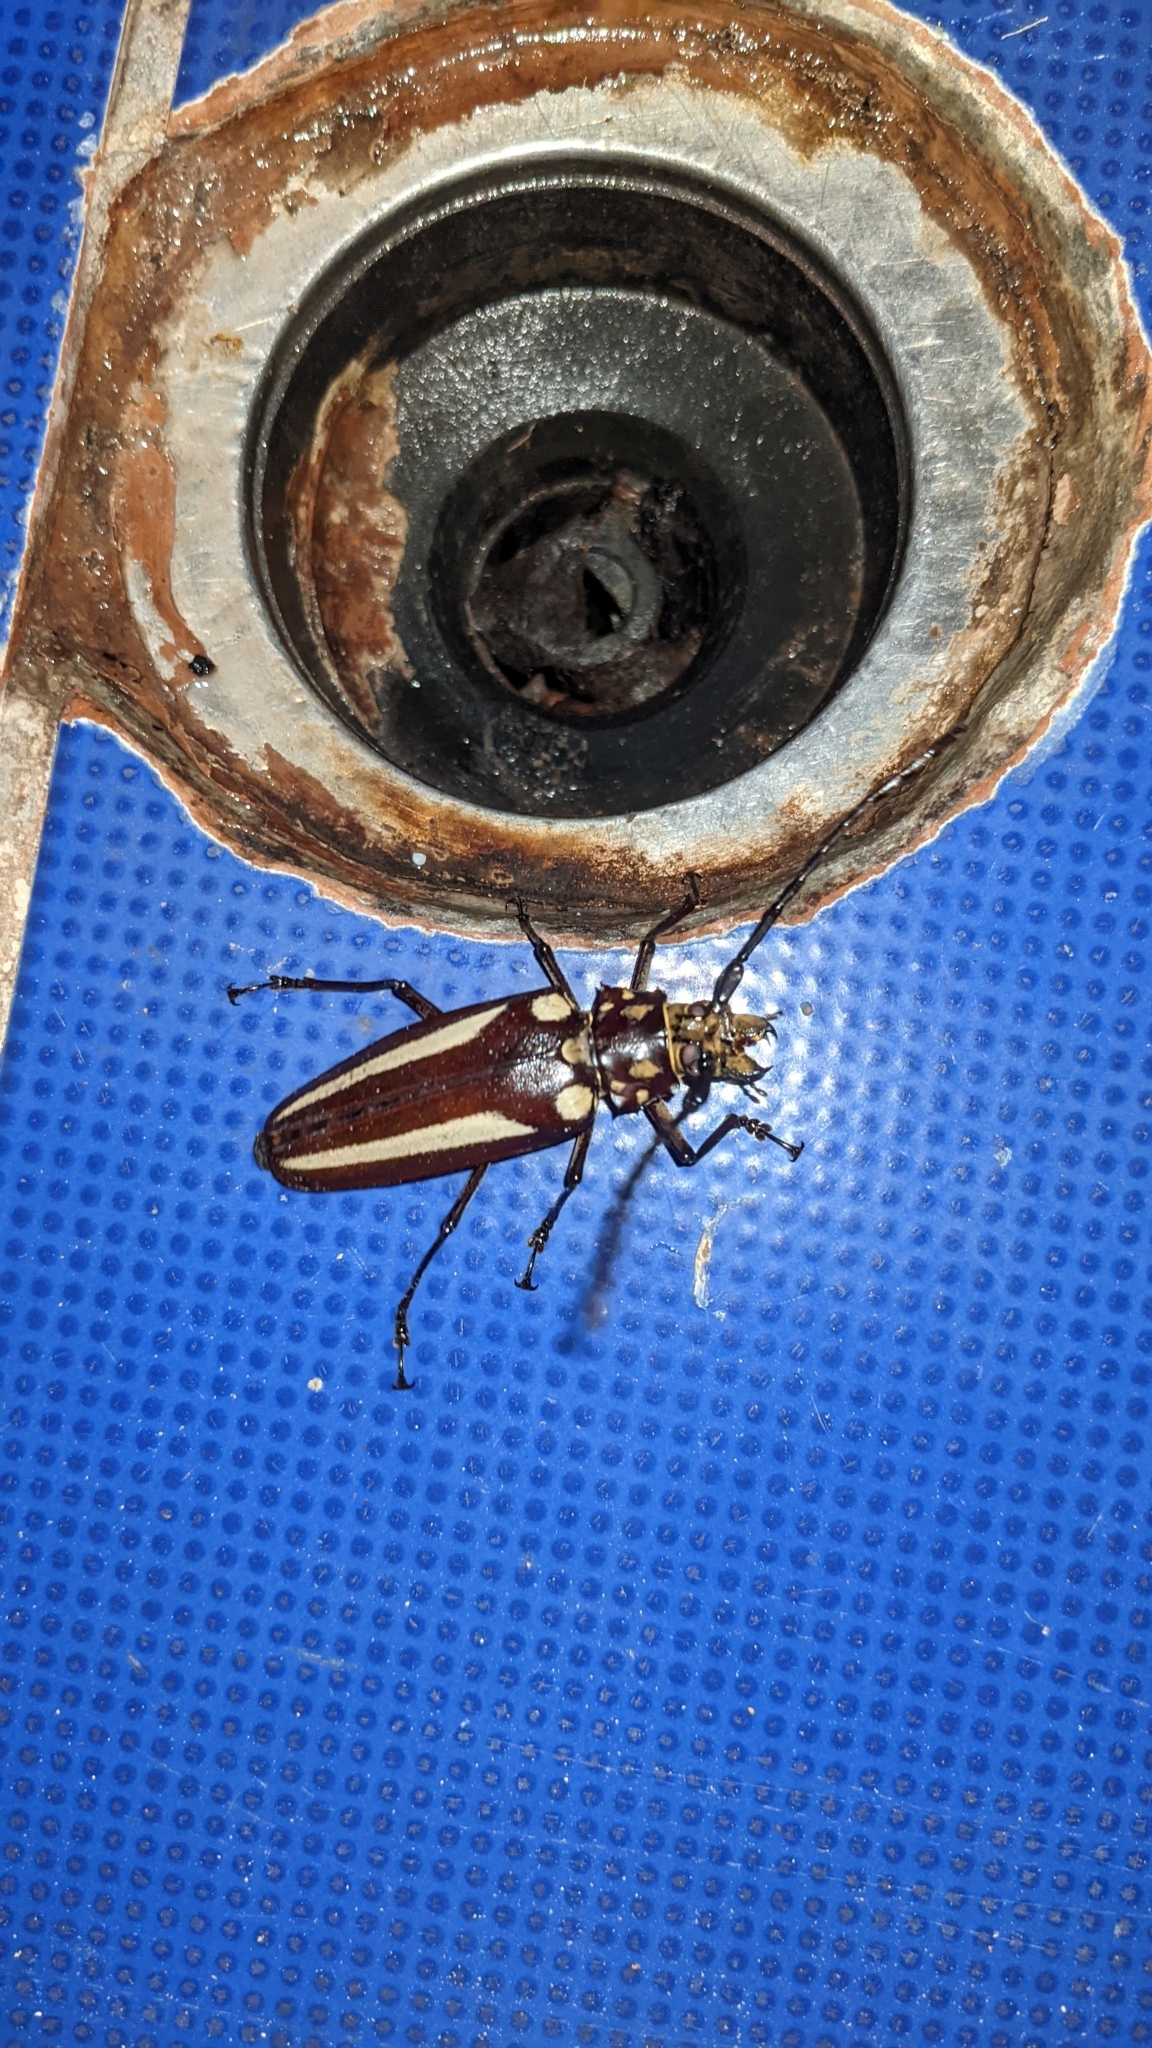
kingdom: Animalia
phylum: Arthropoda
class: Insecta
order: Coleoptera
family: Cerambycidae
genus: Callipogon
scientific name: Callipogon lemoinei
